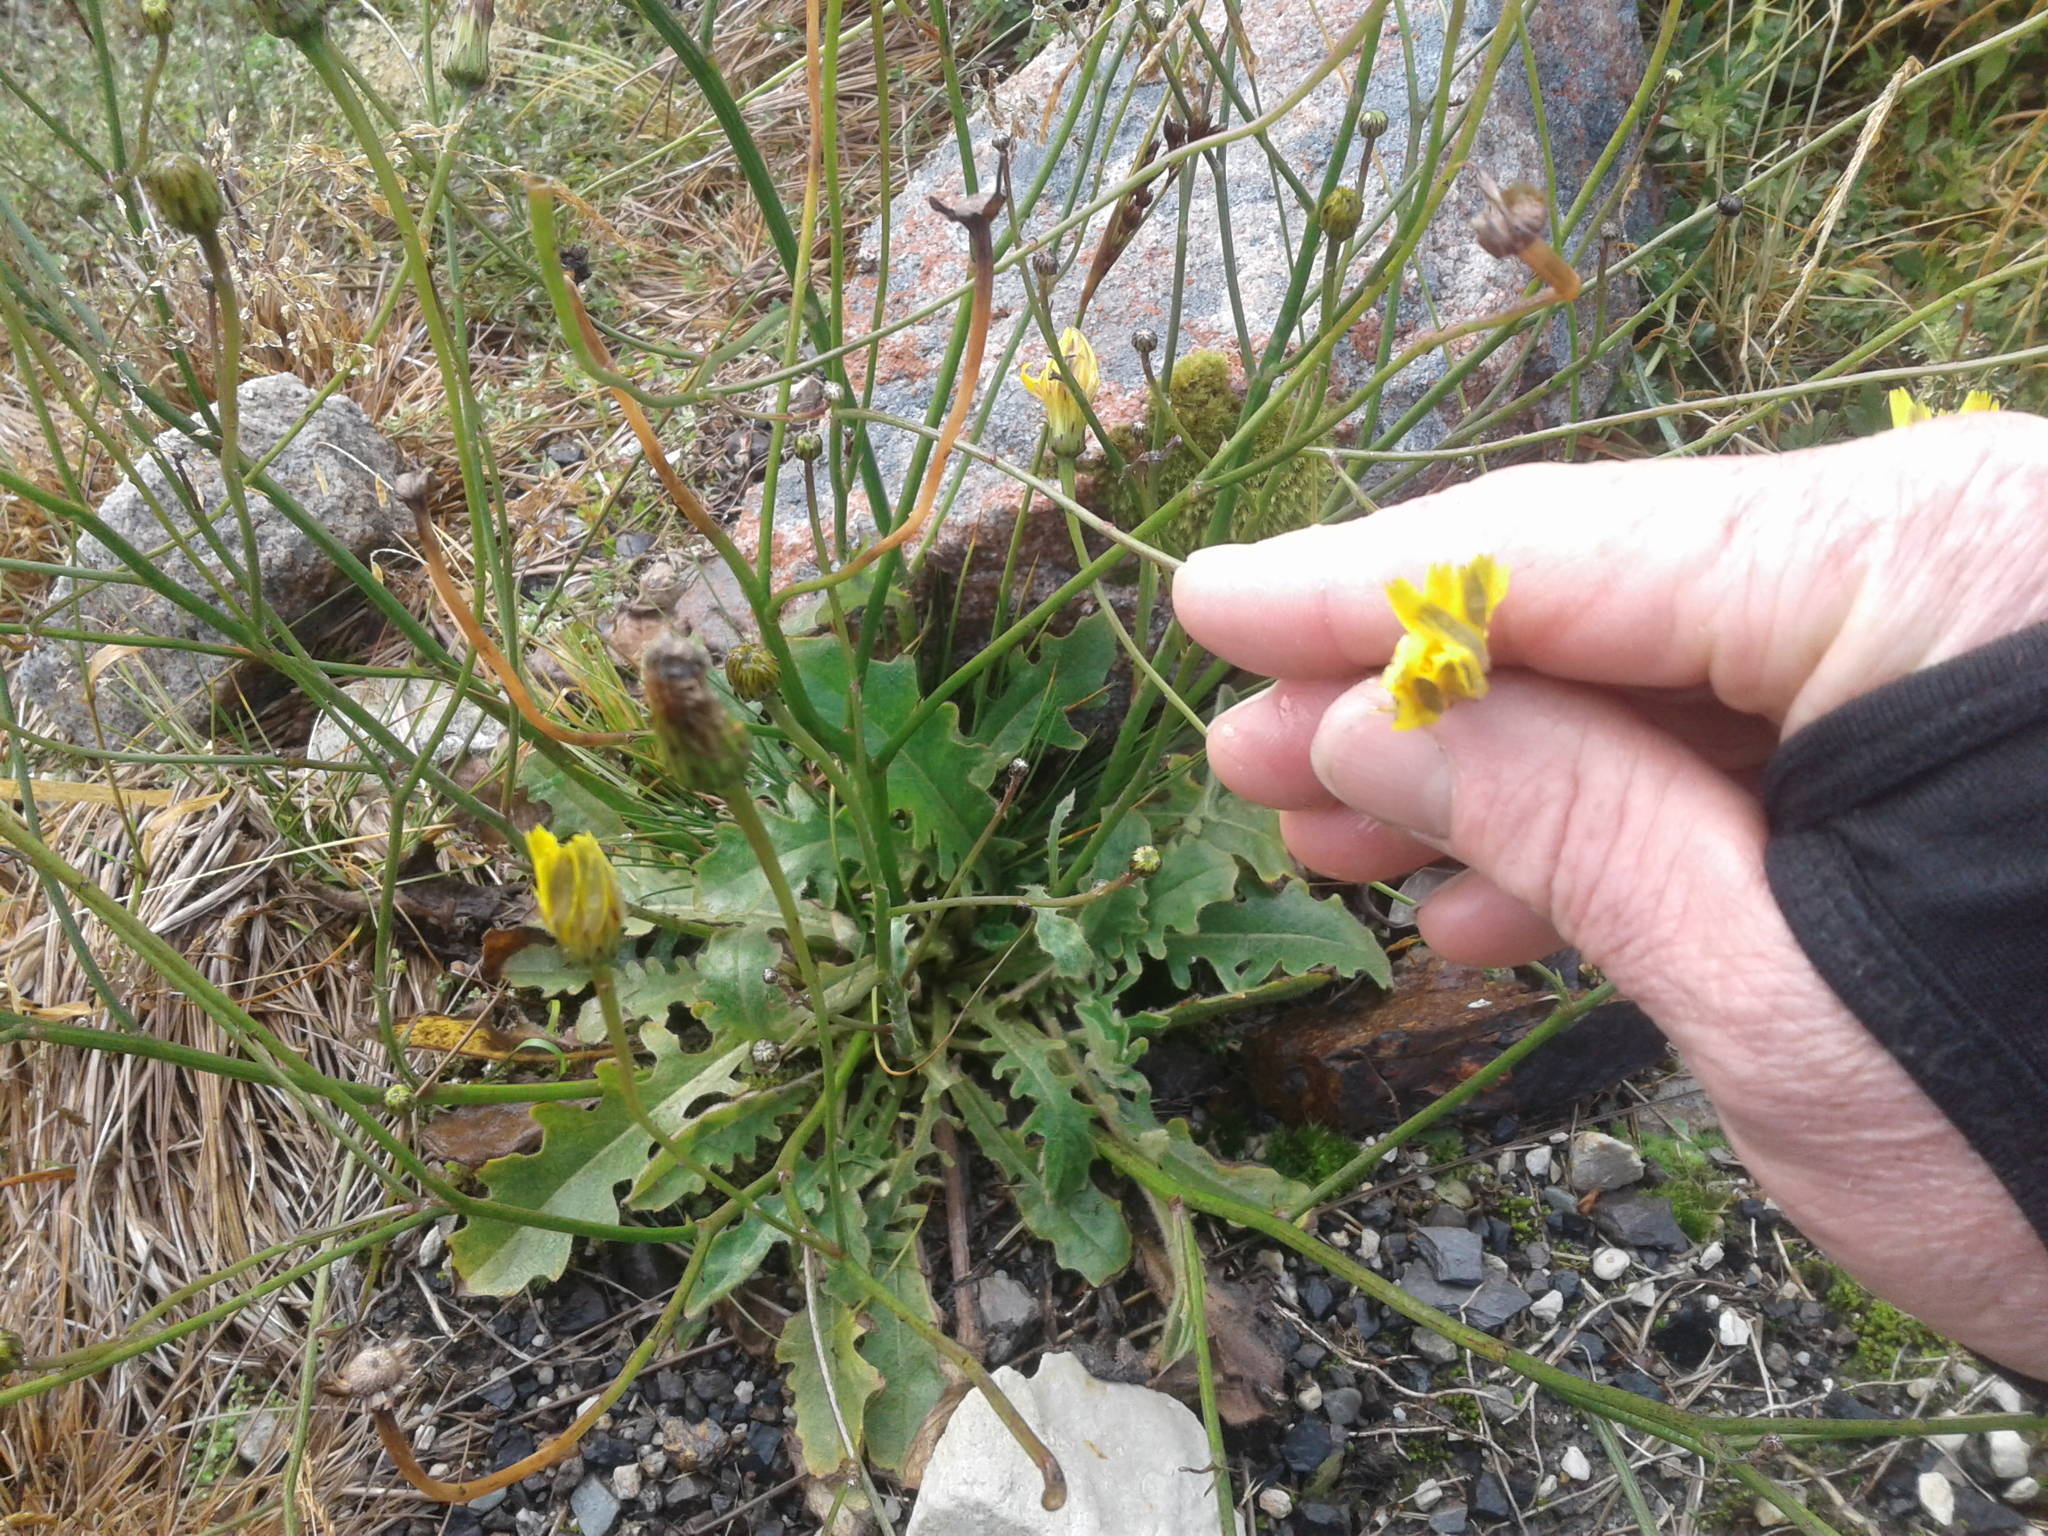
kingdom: Plantae
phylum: Tracheophyta
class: Magnoliopsida
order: Asterales
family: Asteraceae
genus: Hypochaeris
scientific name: Hypochaeris radicata
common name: Flatweed
